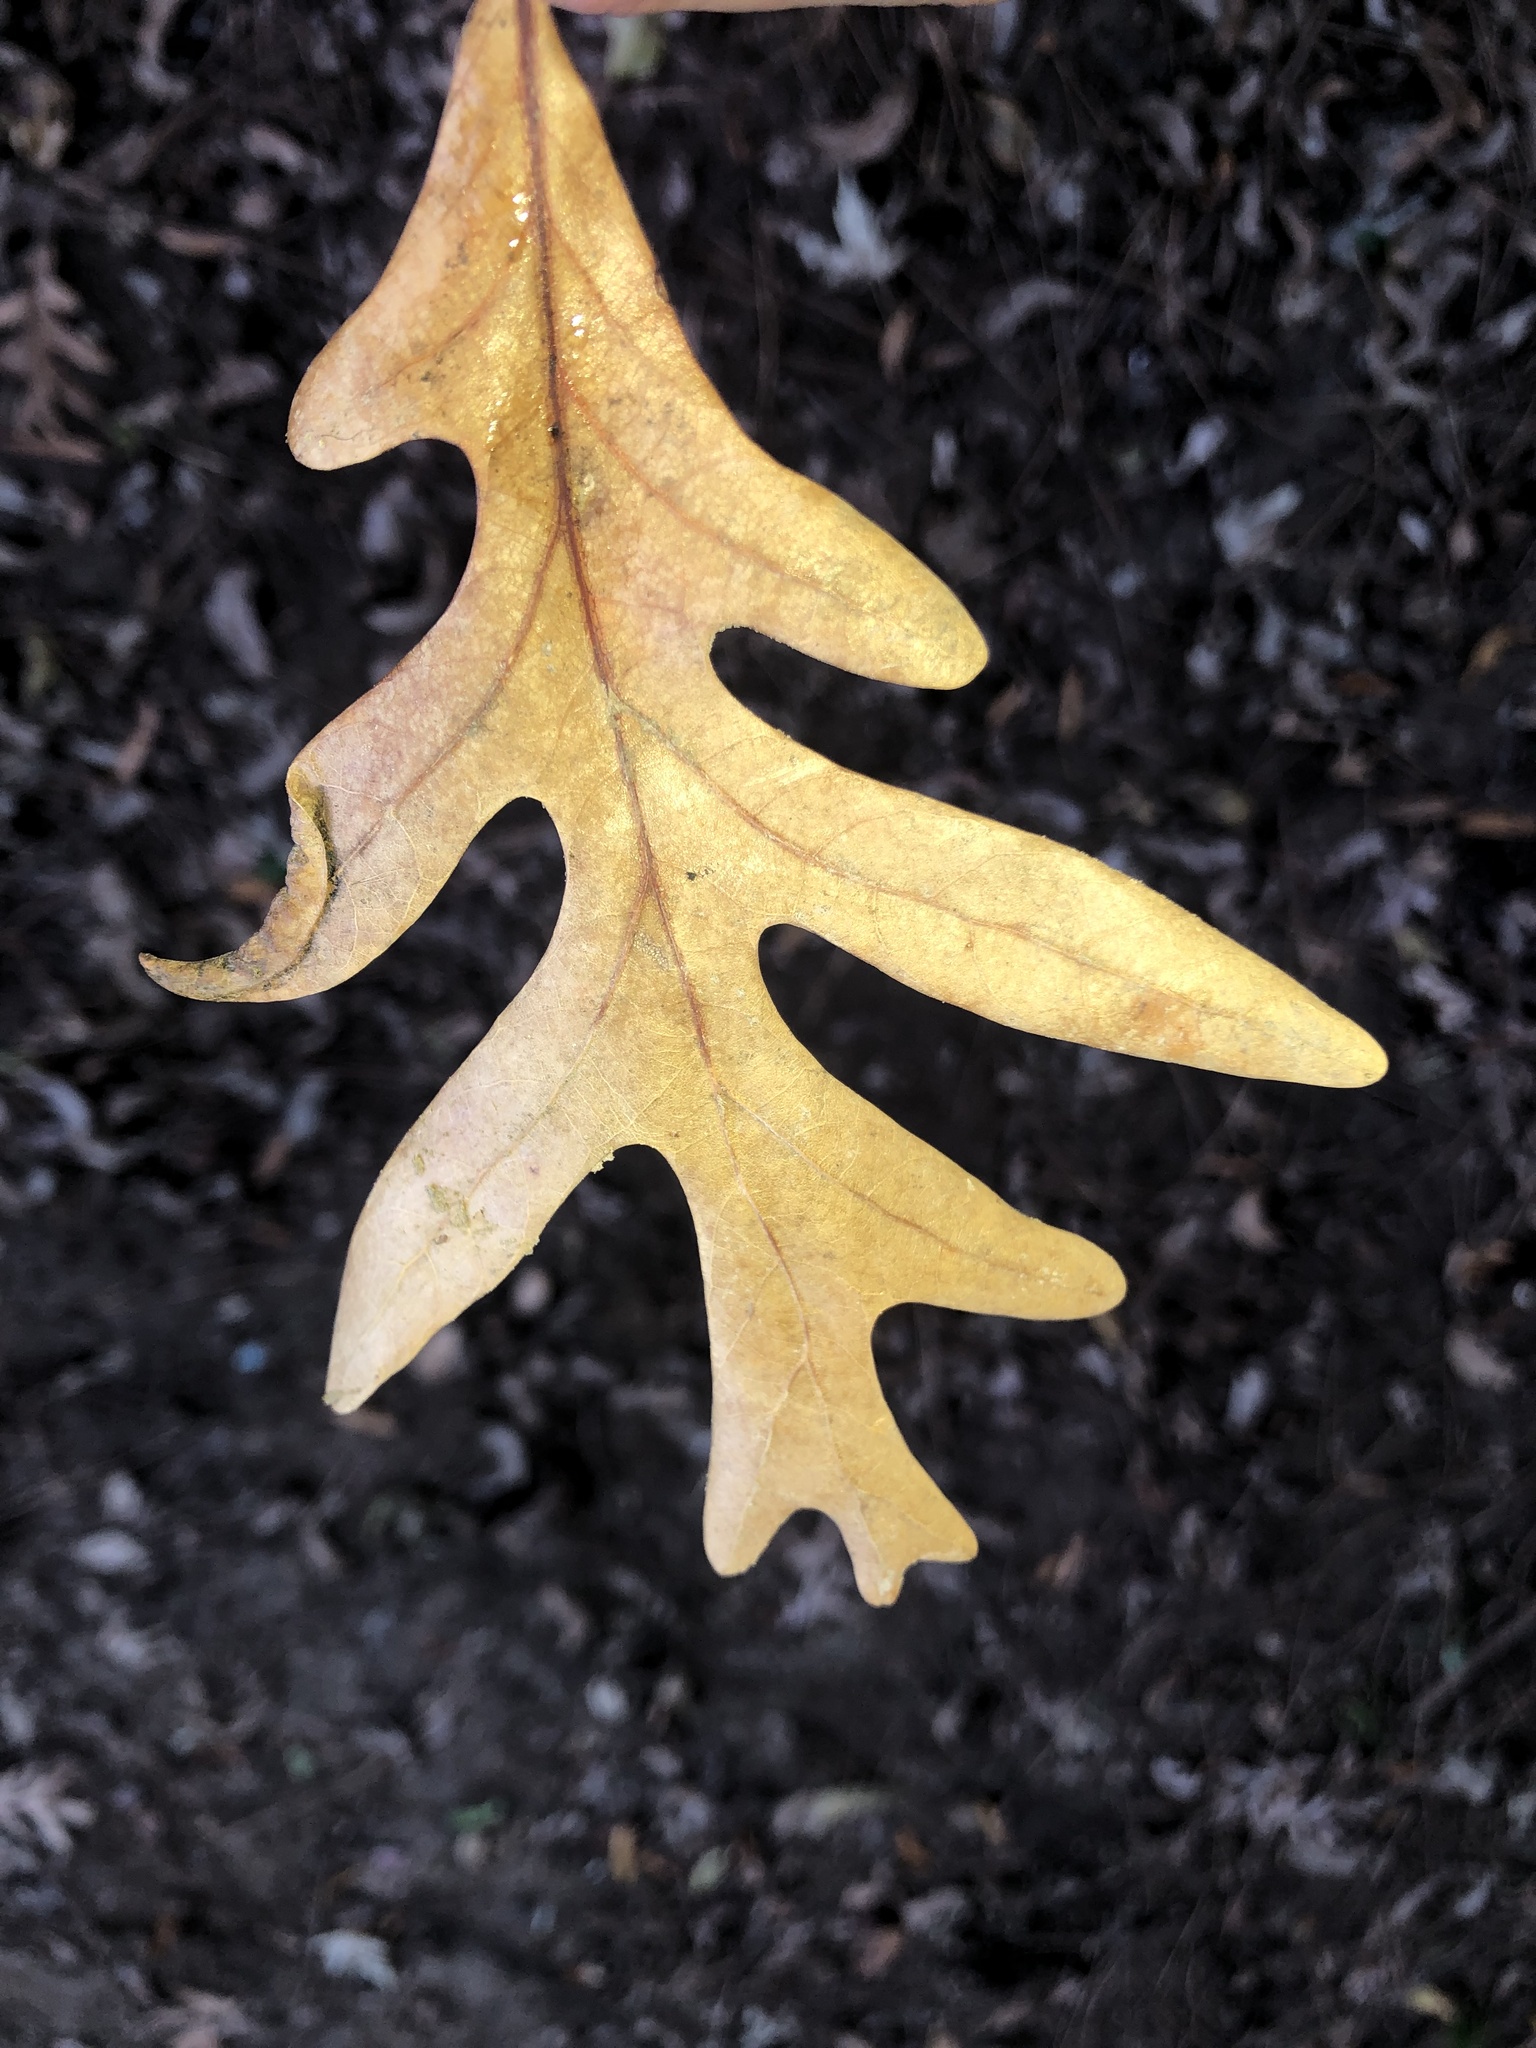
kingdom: Plantae
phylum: Tracheophyta
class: Magnoliopsida
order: Fagales
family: Fagaceae
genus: Quercus
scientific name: Quercus alba
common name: White oak
